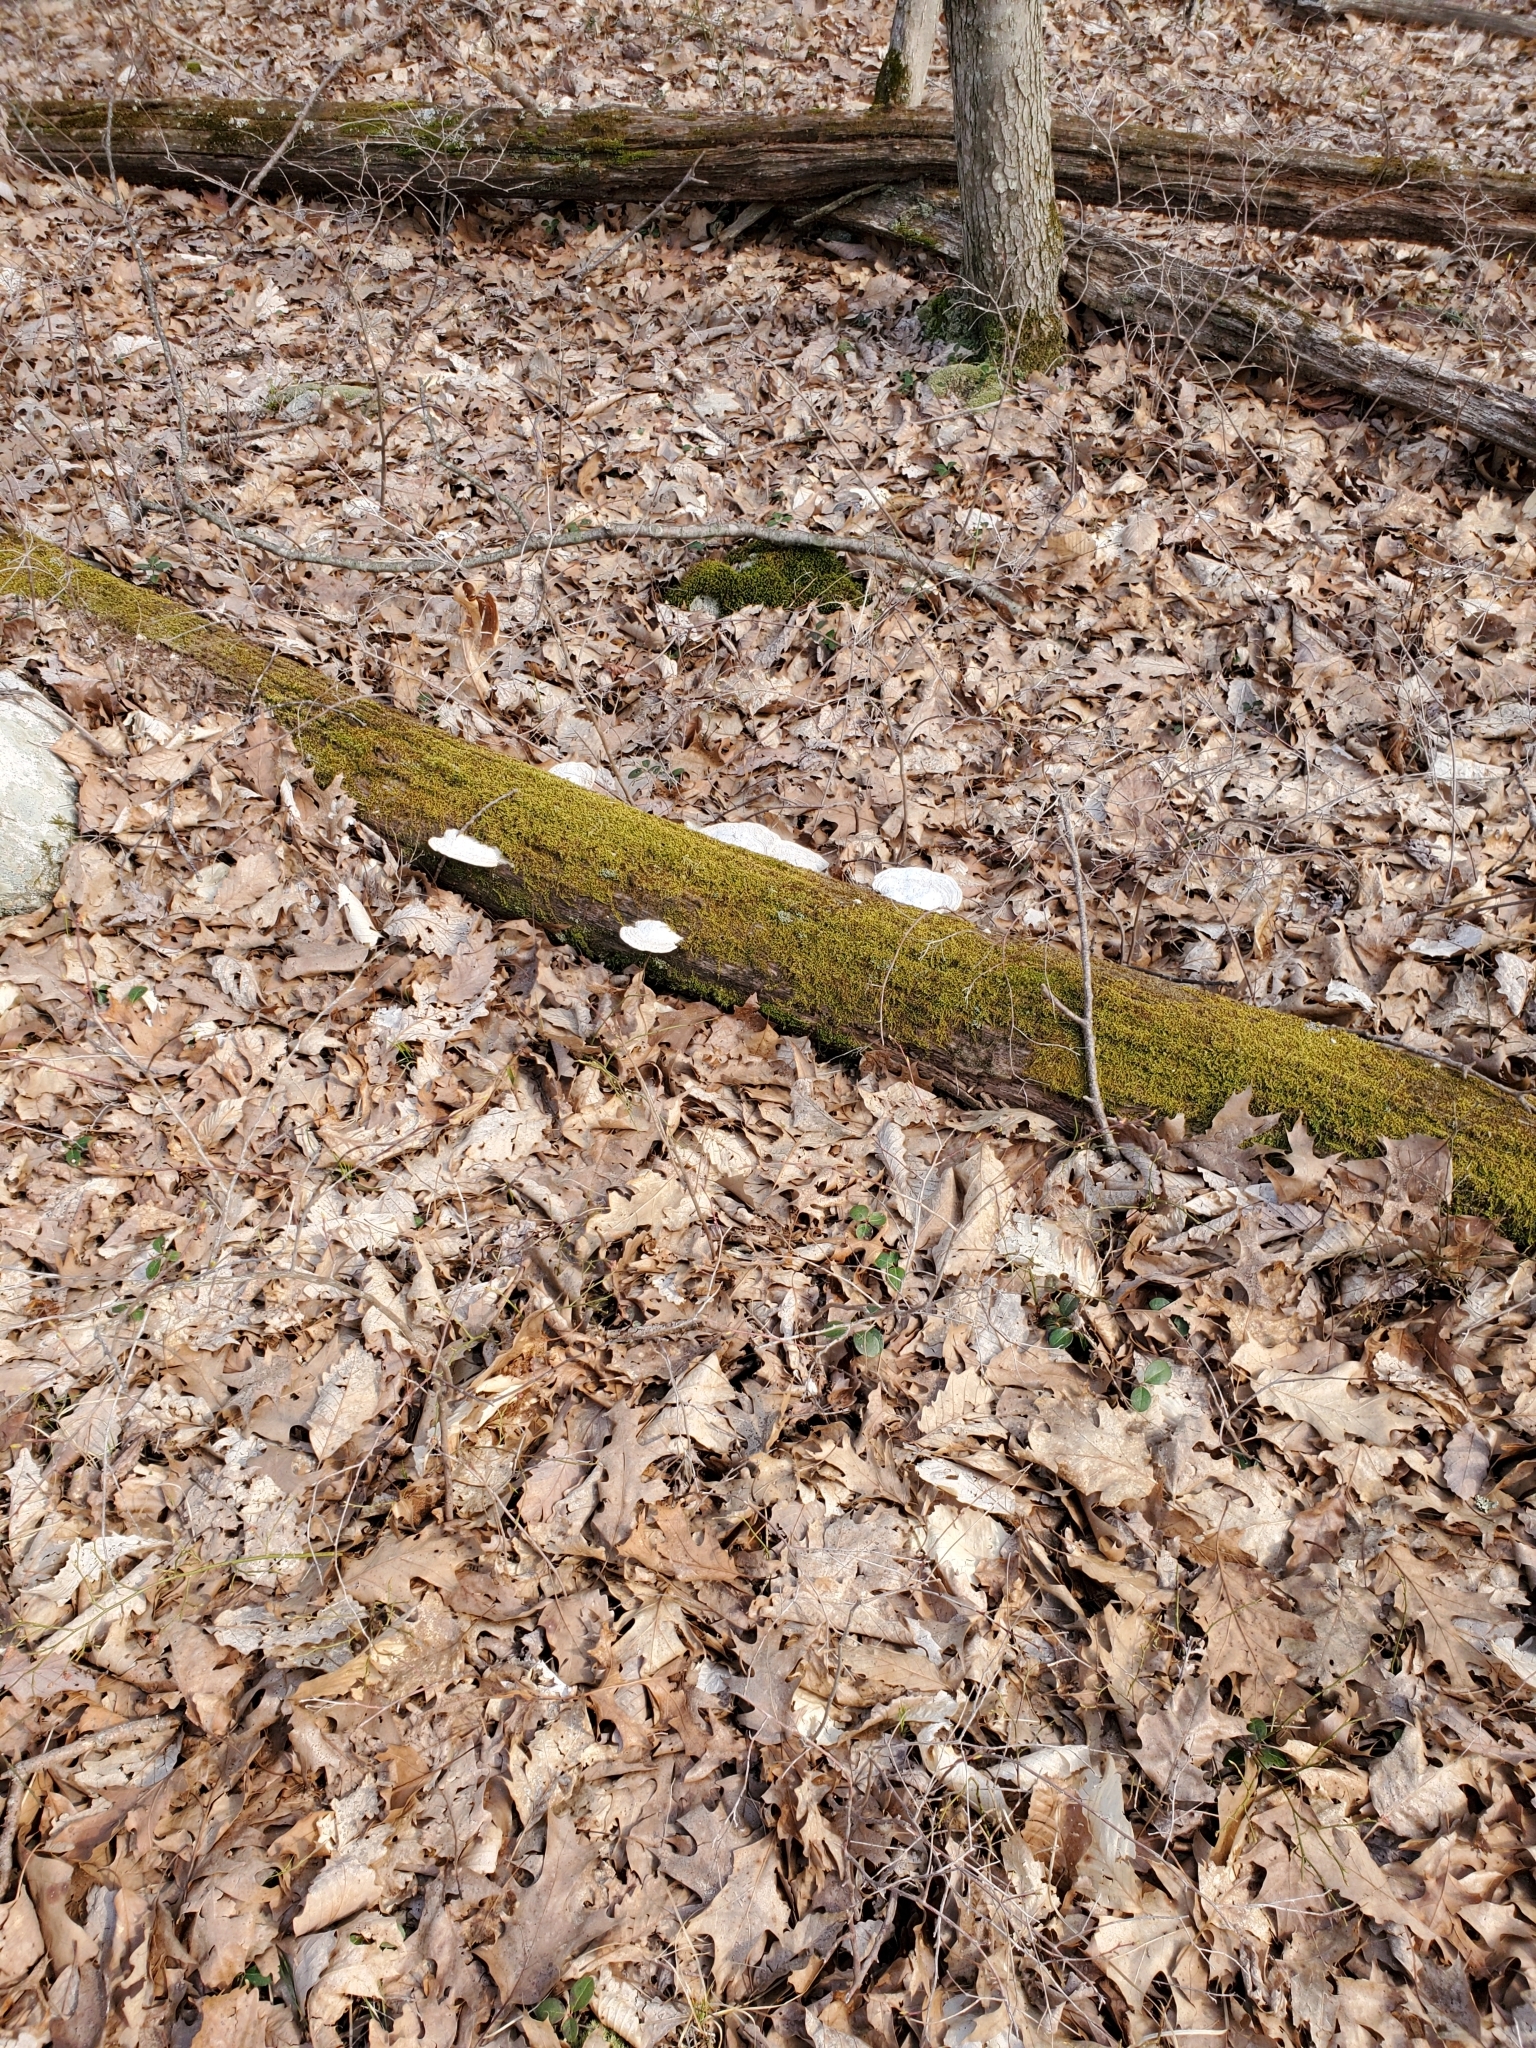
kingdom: Fungi
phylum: Basidiomycota
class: Agaricomycetes
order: Polyporales
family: Fomitopsidaceae
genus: Fomitopsis
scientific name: Fomitopsis
